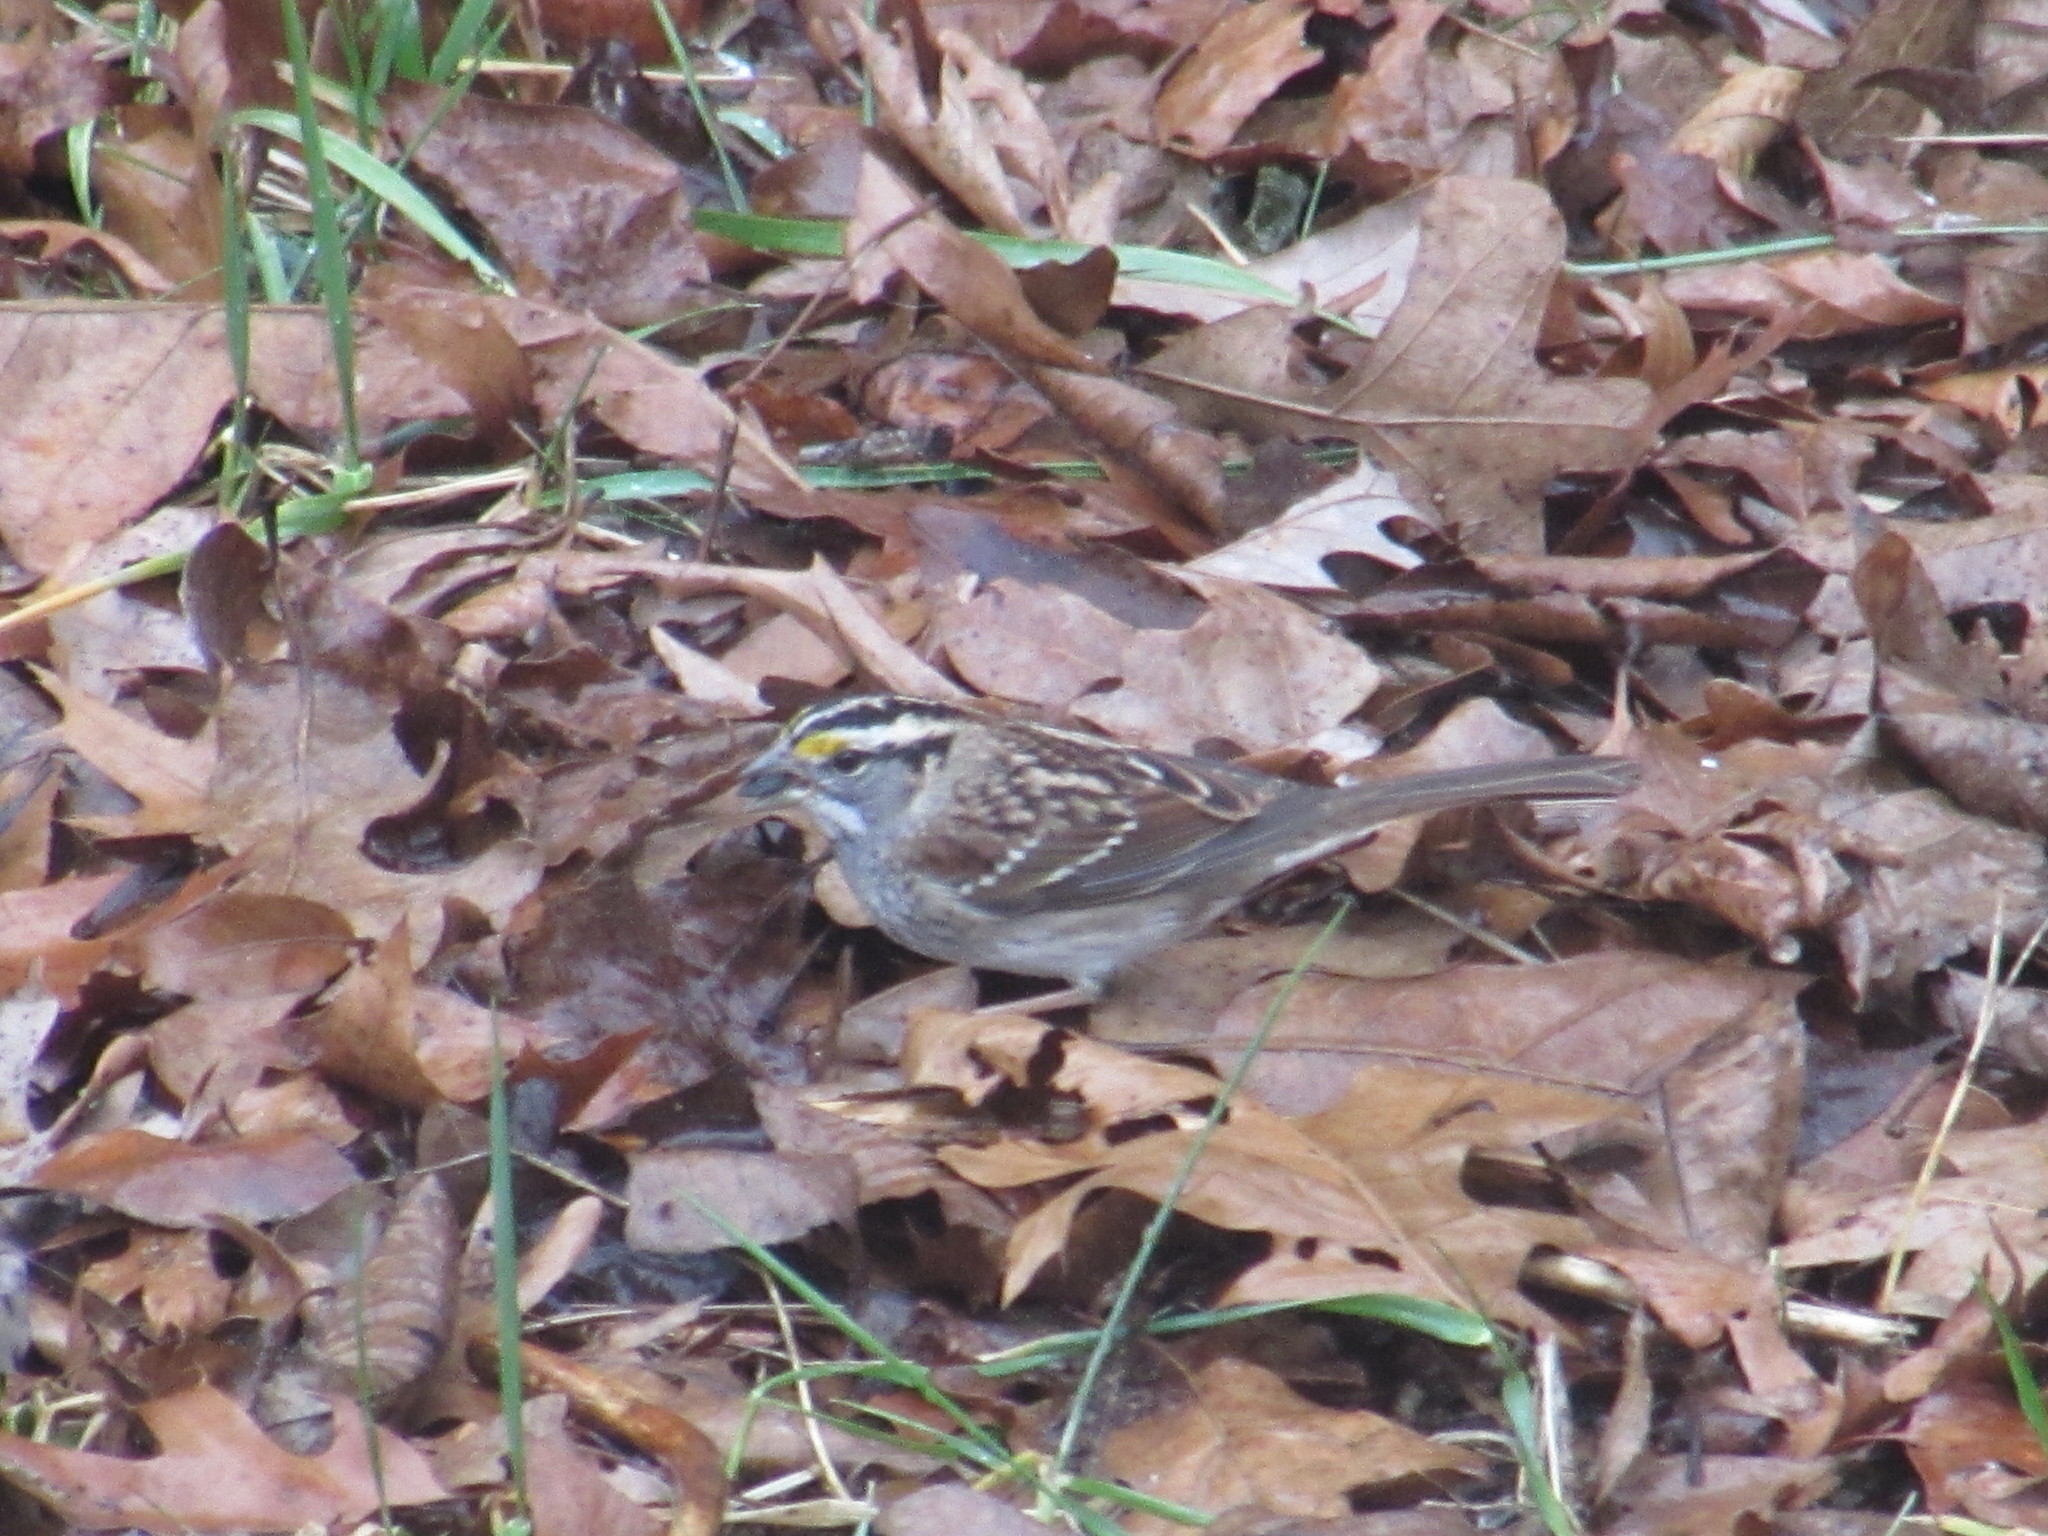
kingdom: Animalia
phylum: Chordata
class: Aves
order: Passeriformes
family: Passerellidae
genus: Zonotrichia
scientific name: Zonotrichia albicollis
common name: White-throated sparrow
